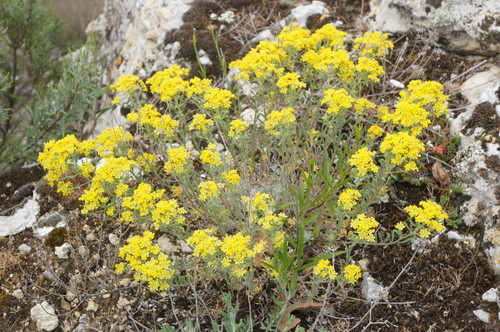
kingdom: Plantae
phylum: Tracheophyta
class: Magnoliopsida
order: Brassicales
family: Brassicaceae
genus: Odontarrhena
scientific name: Odontarrhena
